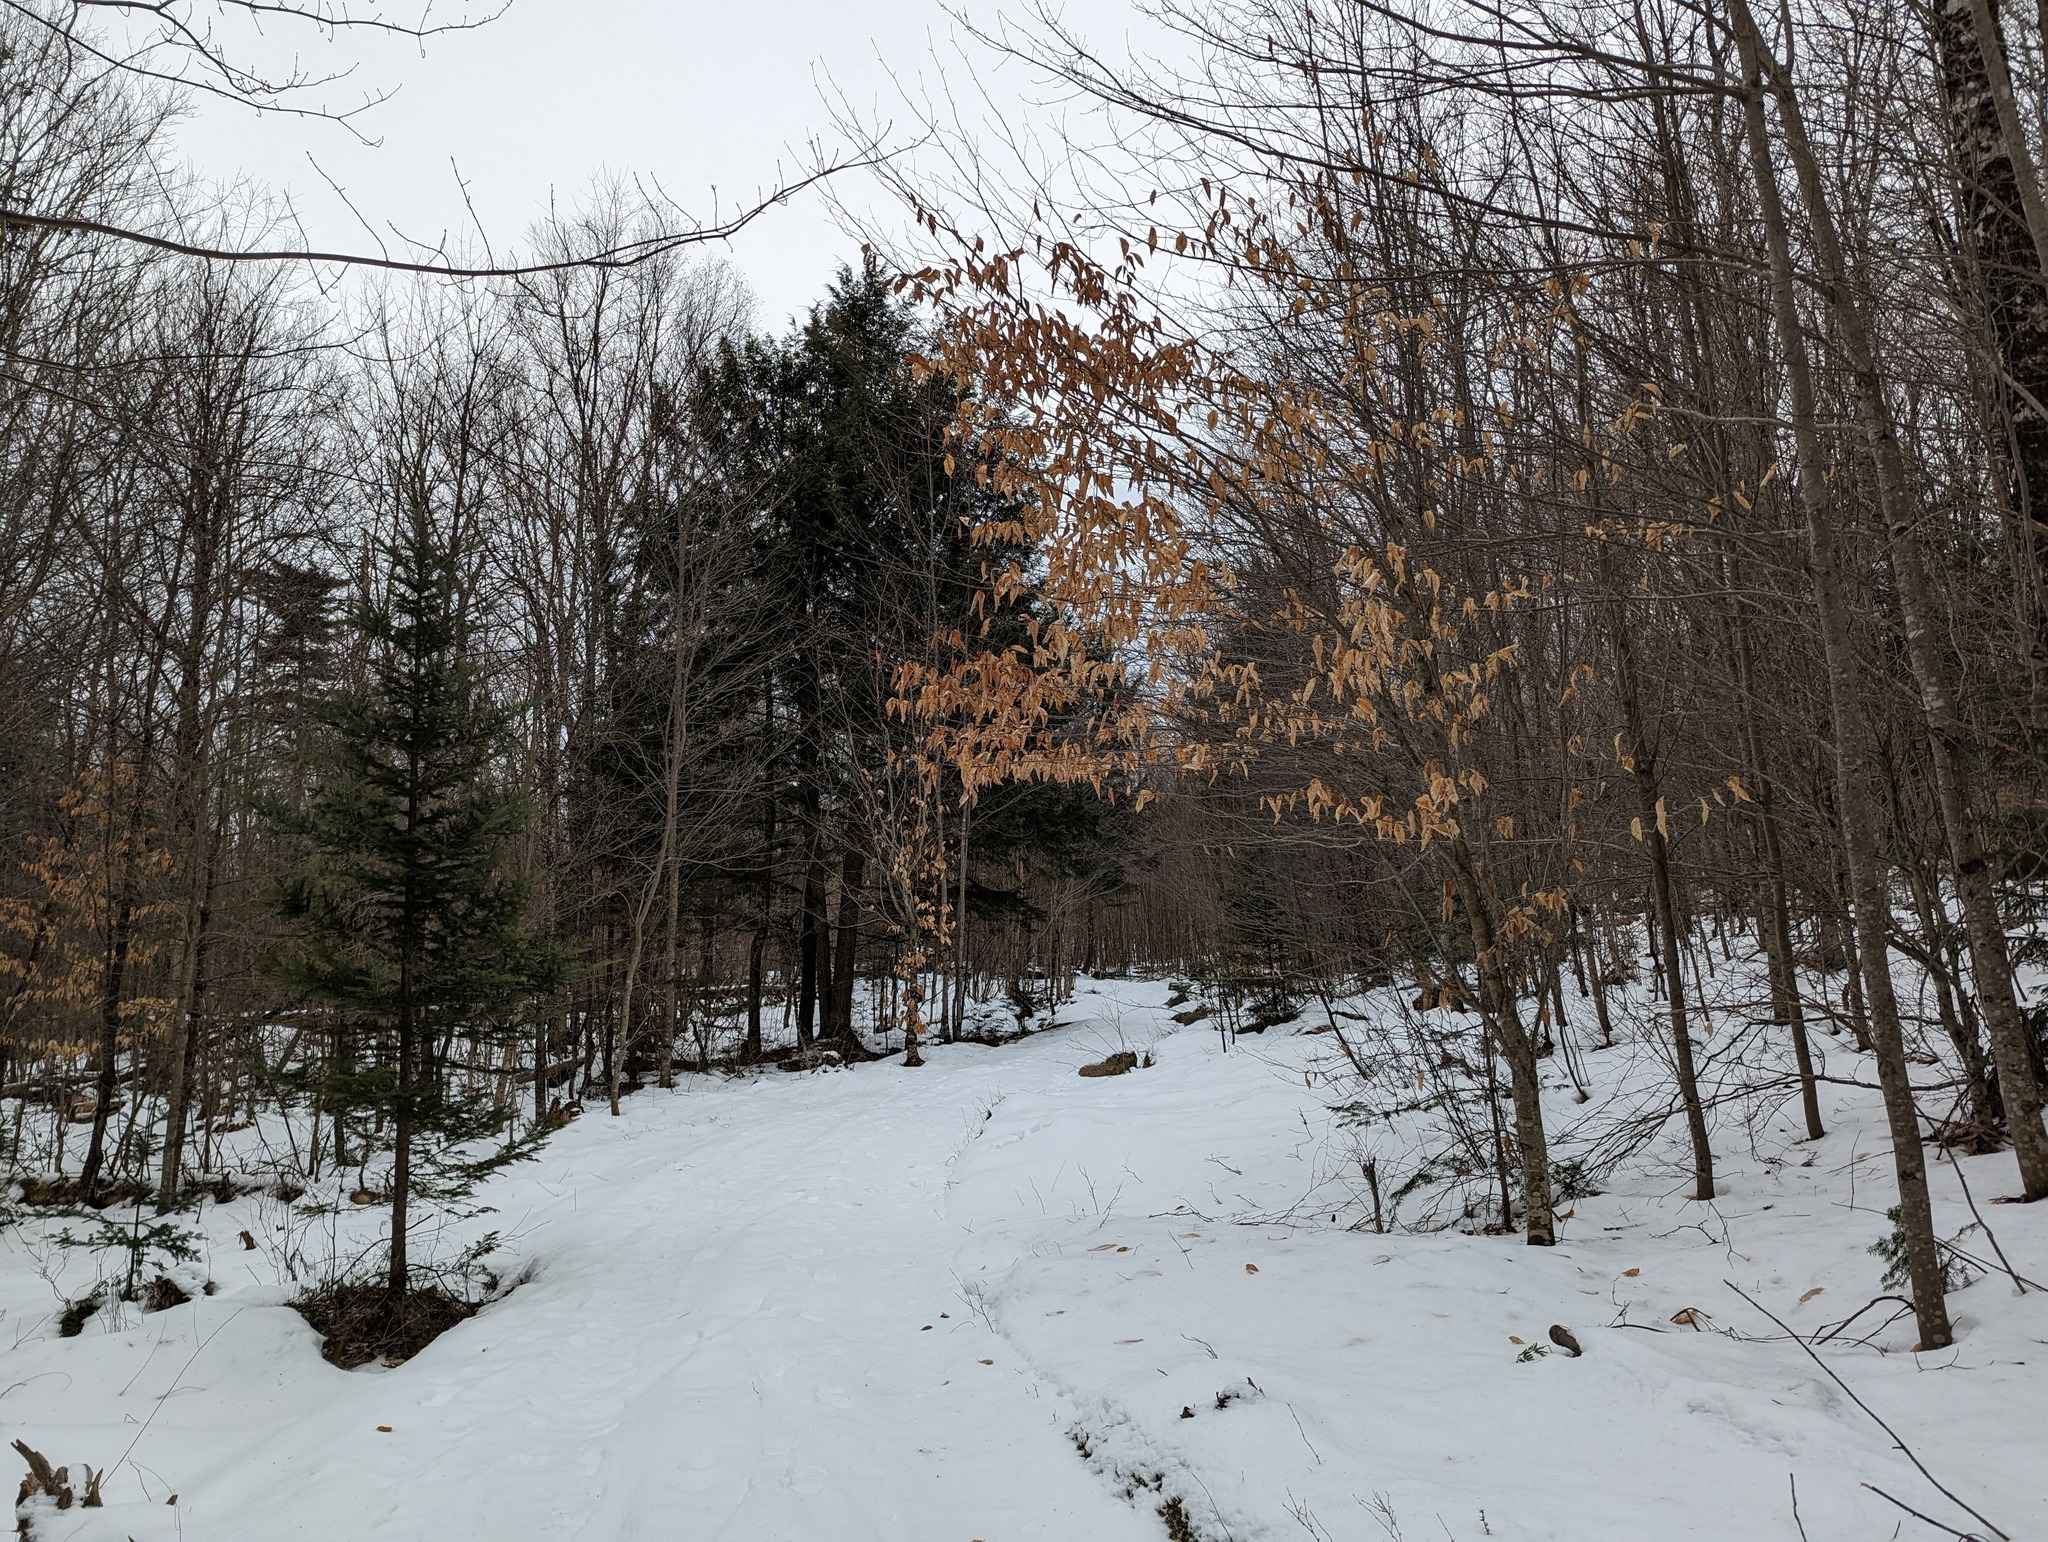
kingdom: Plantae
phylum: Tracheophyta
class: Magnoliopsida
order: Fagales
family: Fagaceae
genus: Fagus
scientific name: Fagus grandifolia
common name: American beech
